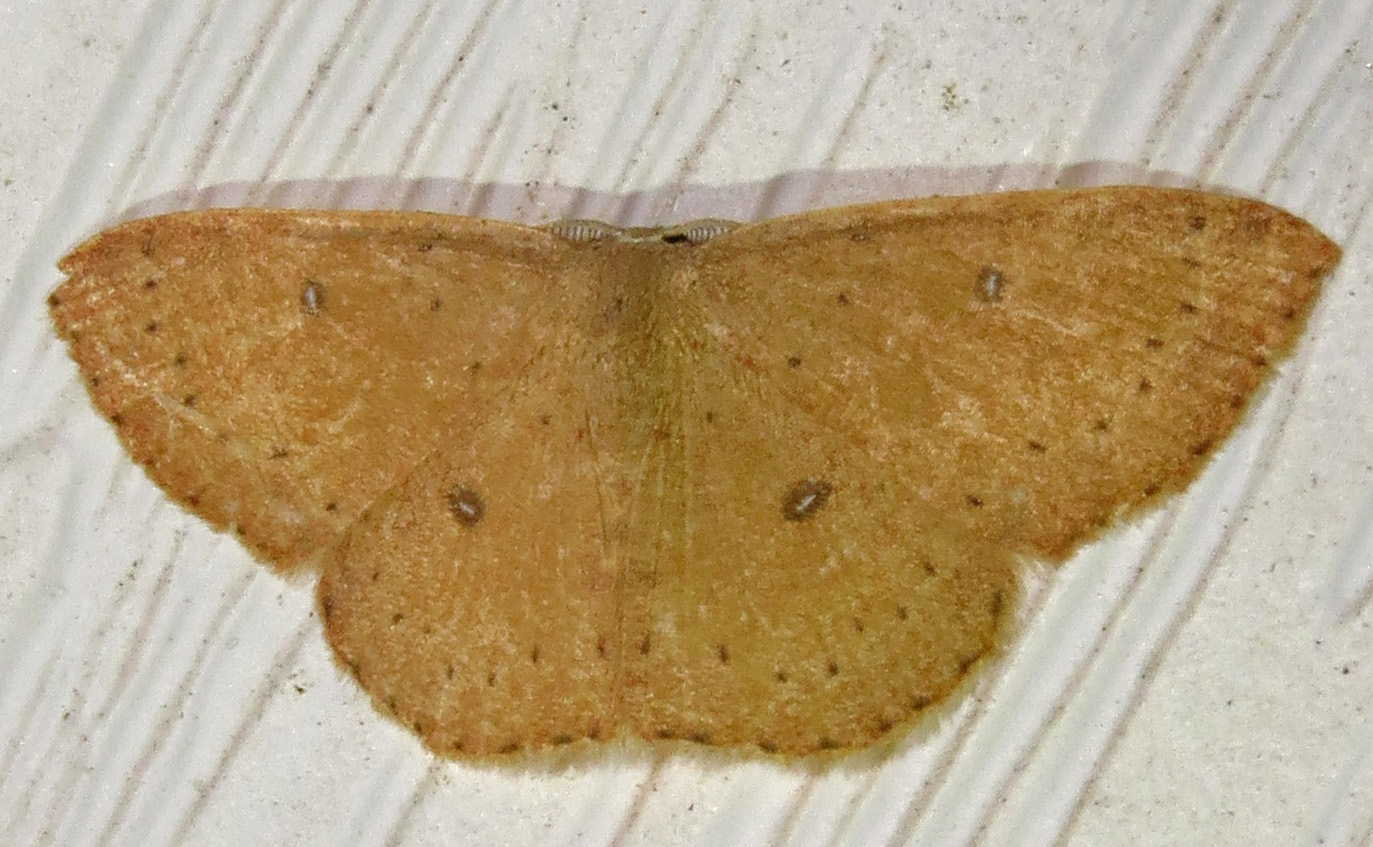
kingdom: Animalia
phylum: Arthropoda
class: Insecta
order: Lepidoptera
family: Geometridae
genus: Cyclophora
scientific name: Cyclophora packardi
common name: Packard's wave
